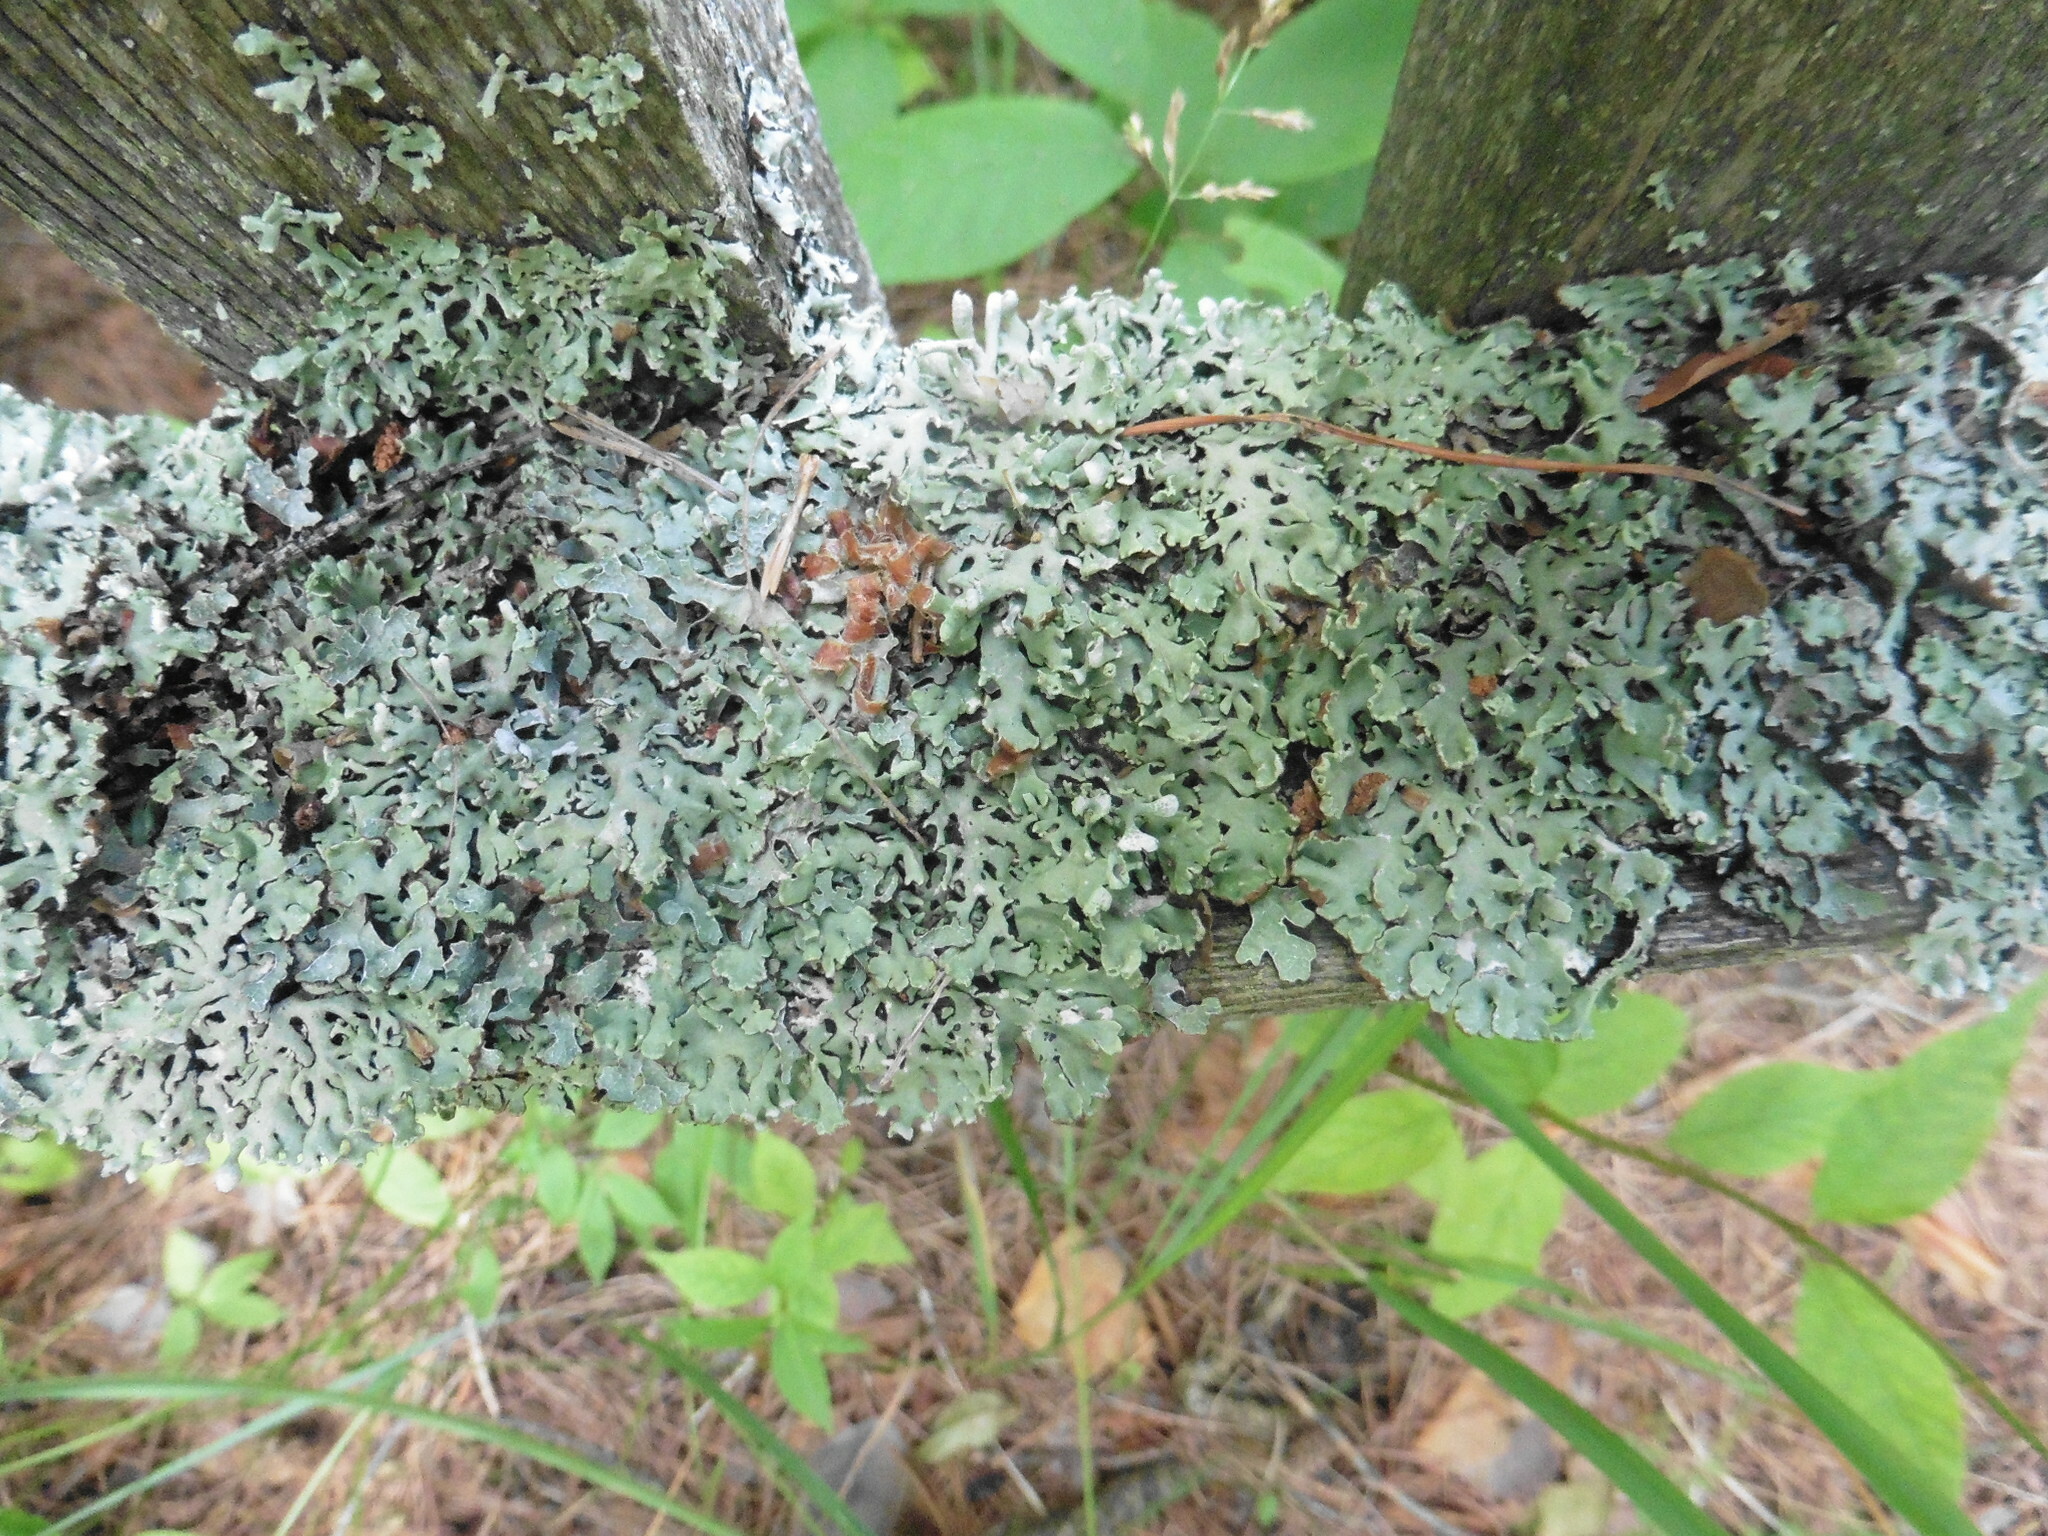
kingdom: Fungi
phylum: Ascomycota
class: Lecanoromycetes
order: Lecanorales
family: Parmeliaceae
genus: Hypogymnia
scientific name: Hypogymnia physodes
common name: Dark crottle
